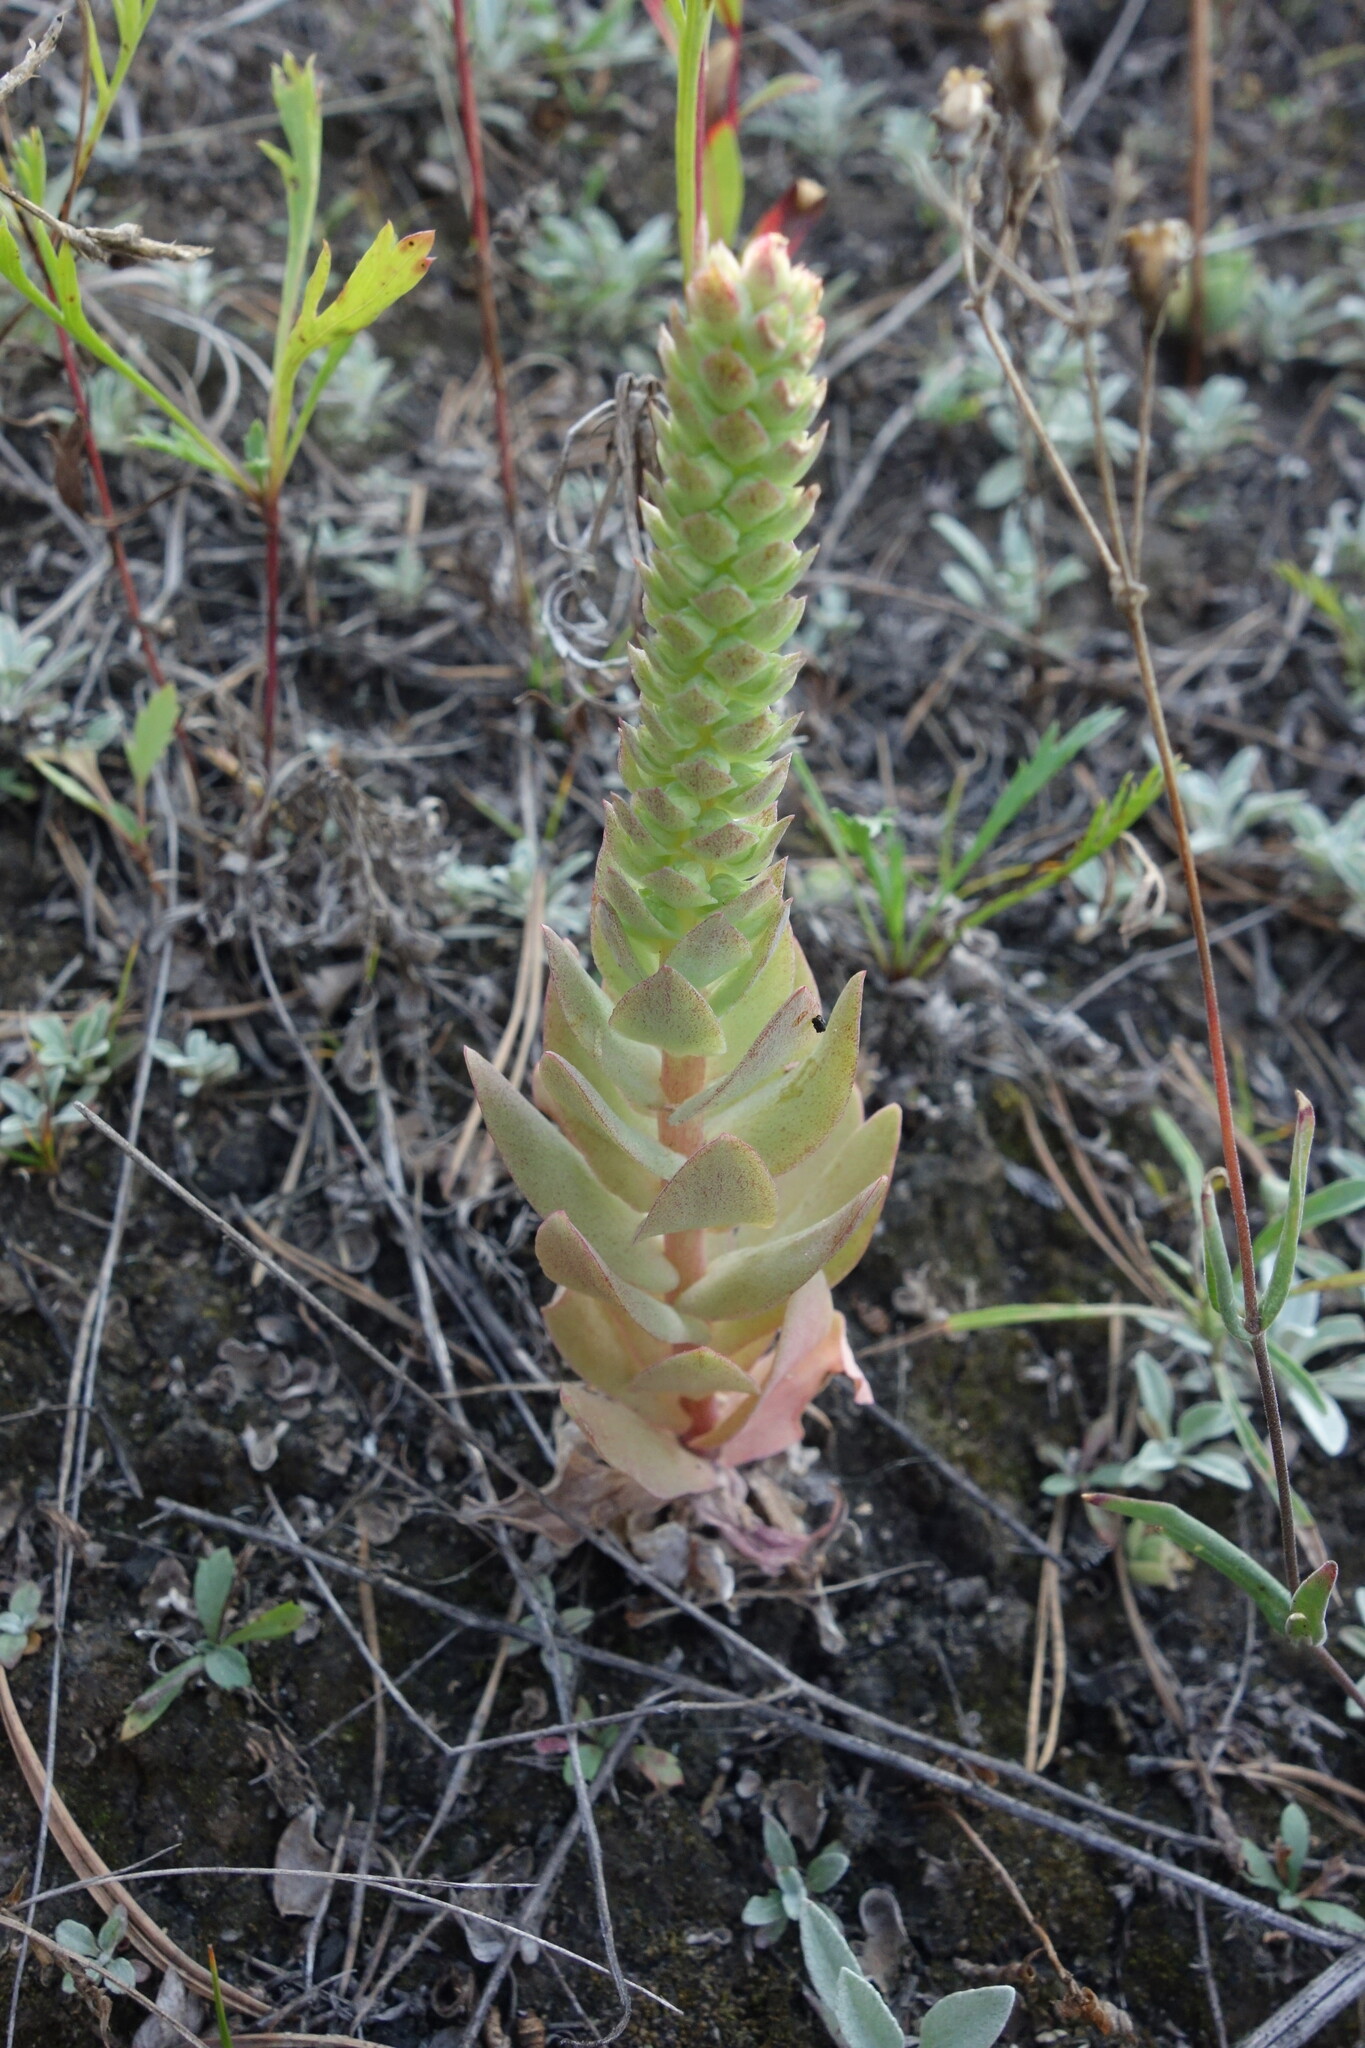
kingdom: Plantae
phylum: Tracheophyta
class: Magnoliopsida
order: Saxifragales
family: Crassulaceae
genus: Orostachys
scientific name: Orostachys malacophylla
